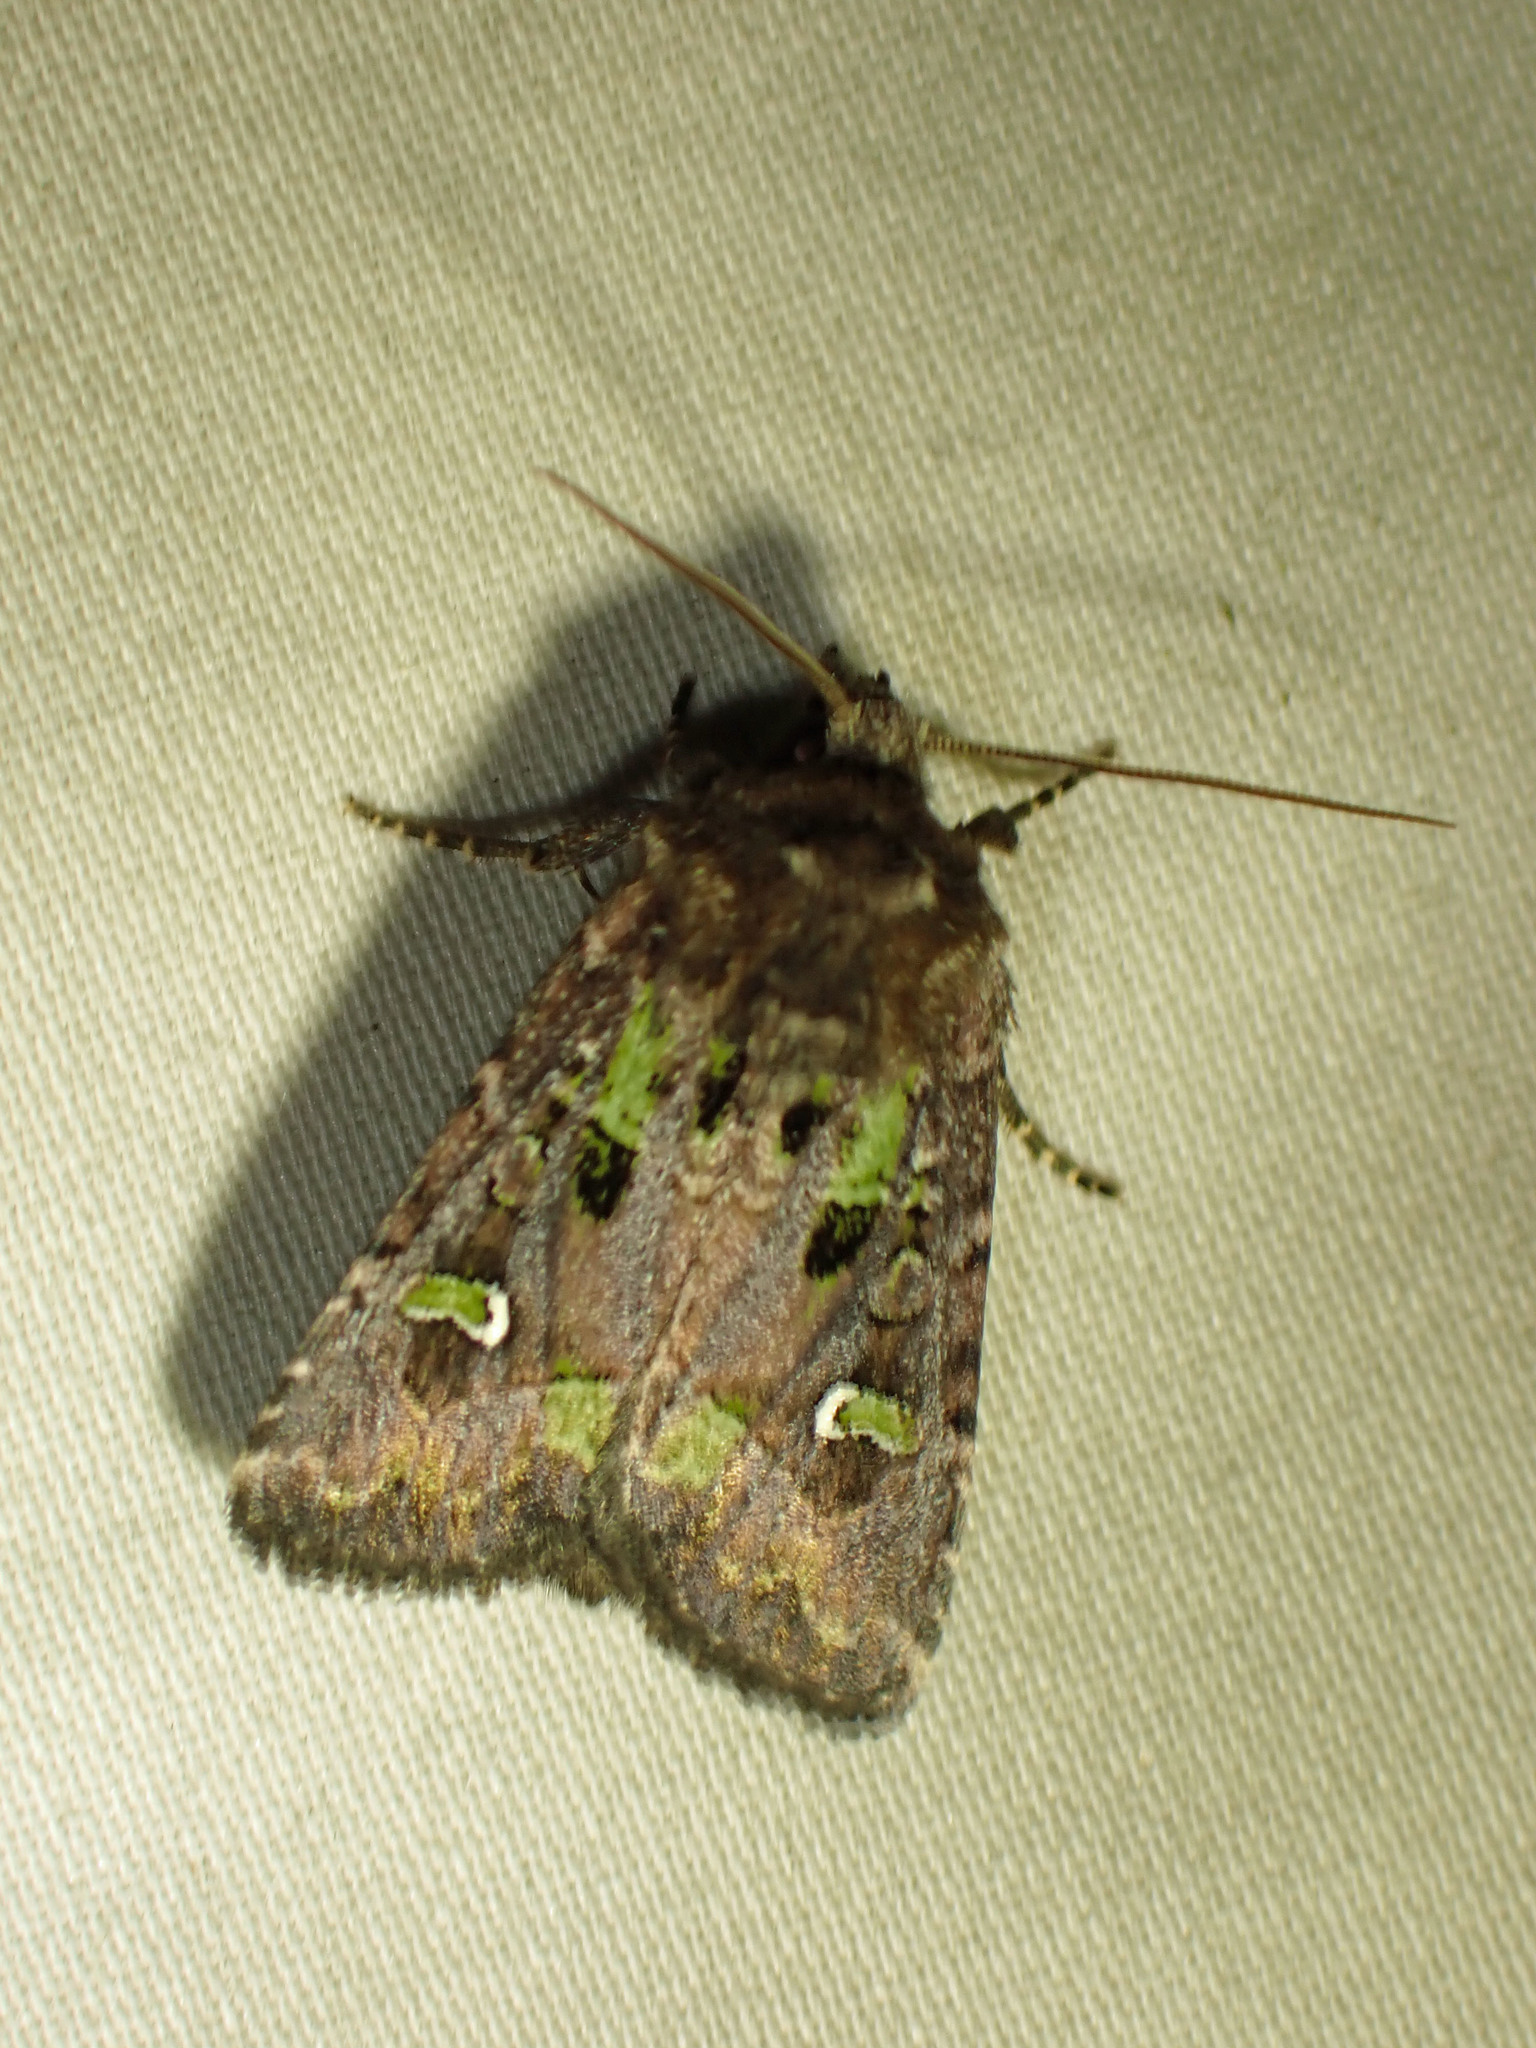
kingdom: Animalia
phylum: Arthropoda
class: Insecta
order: Lepidoptera
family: Noctuidae
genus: Lacinipolia
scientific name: Lacinipolia renigera
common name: Kidney-spotted minor
